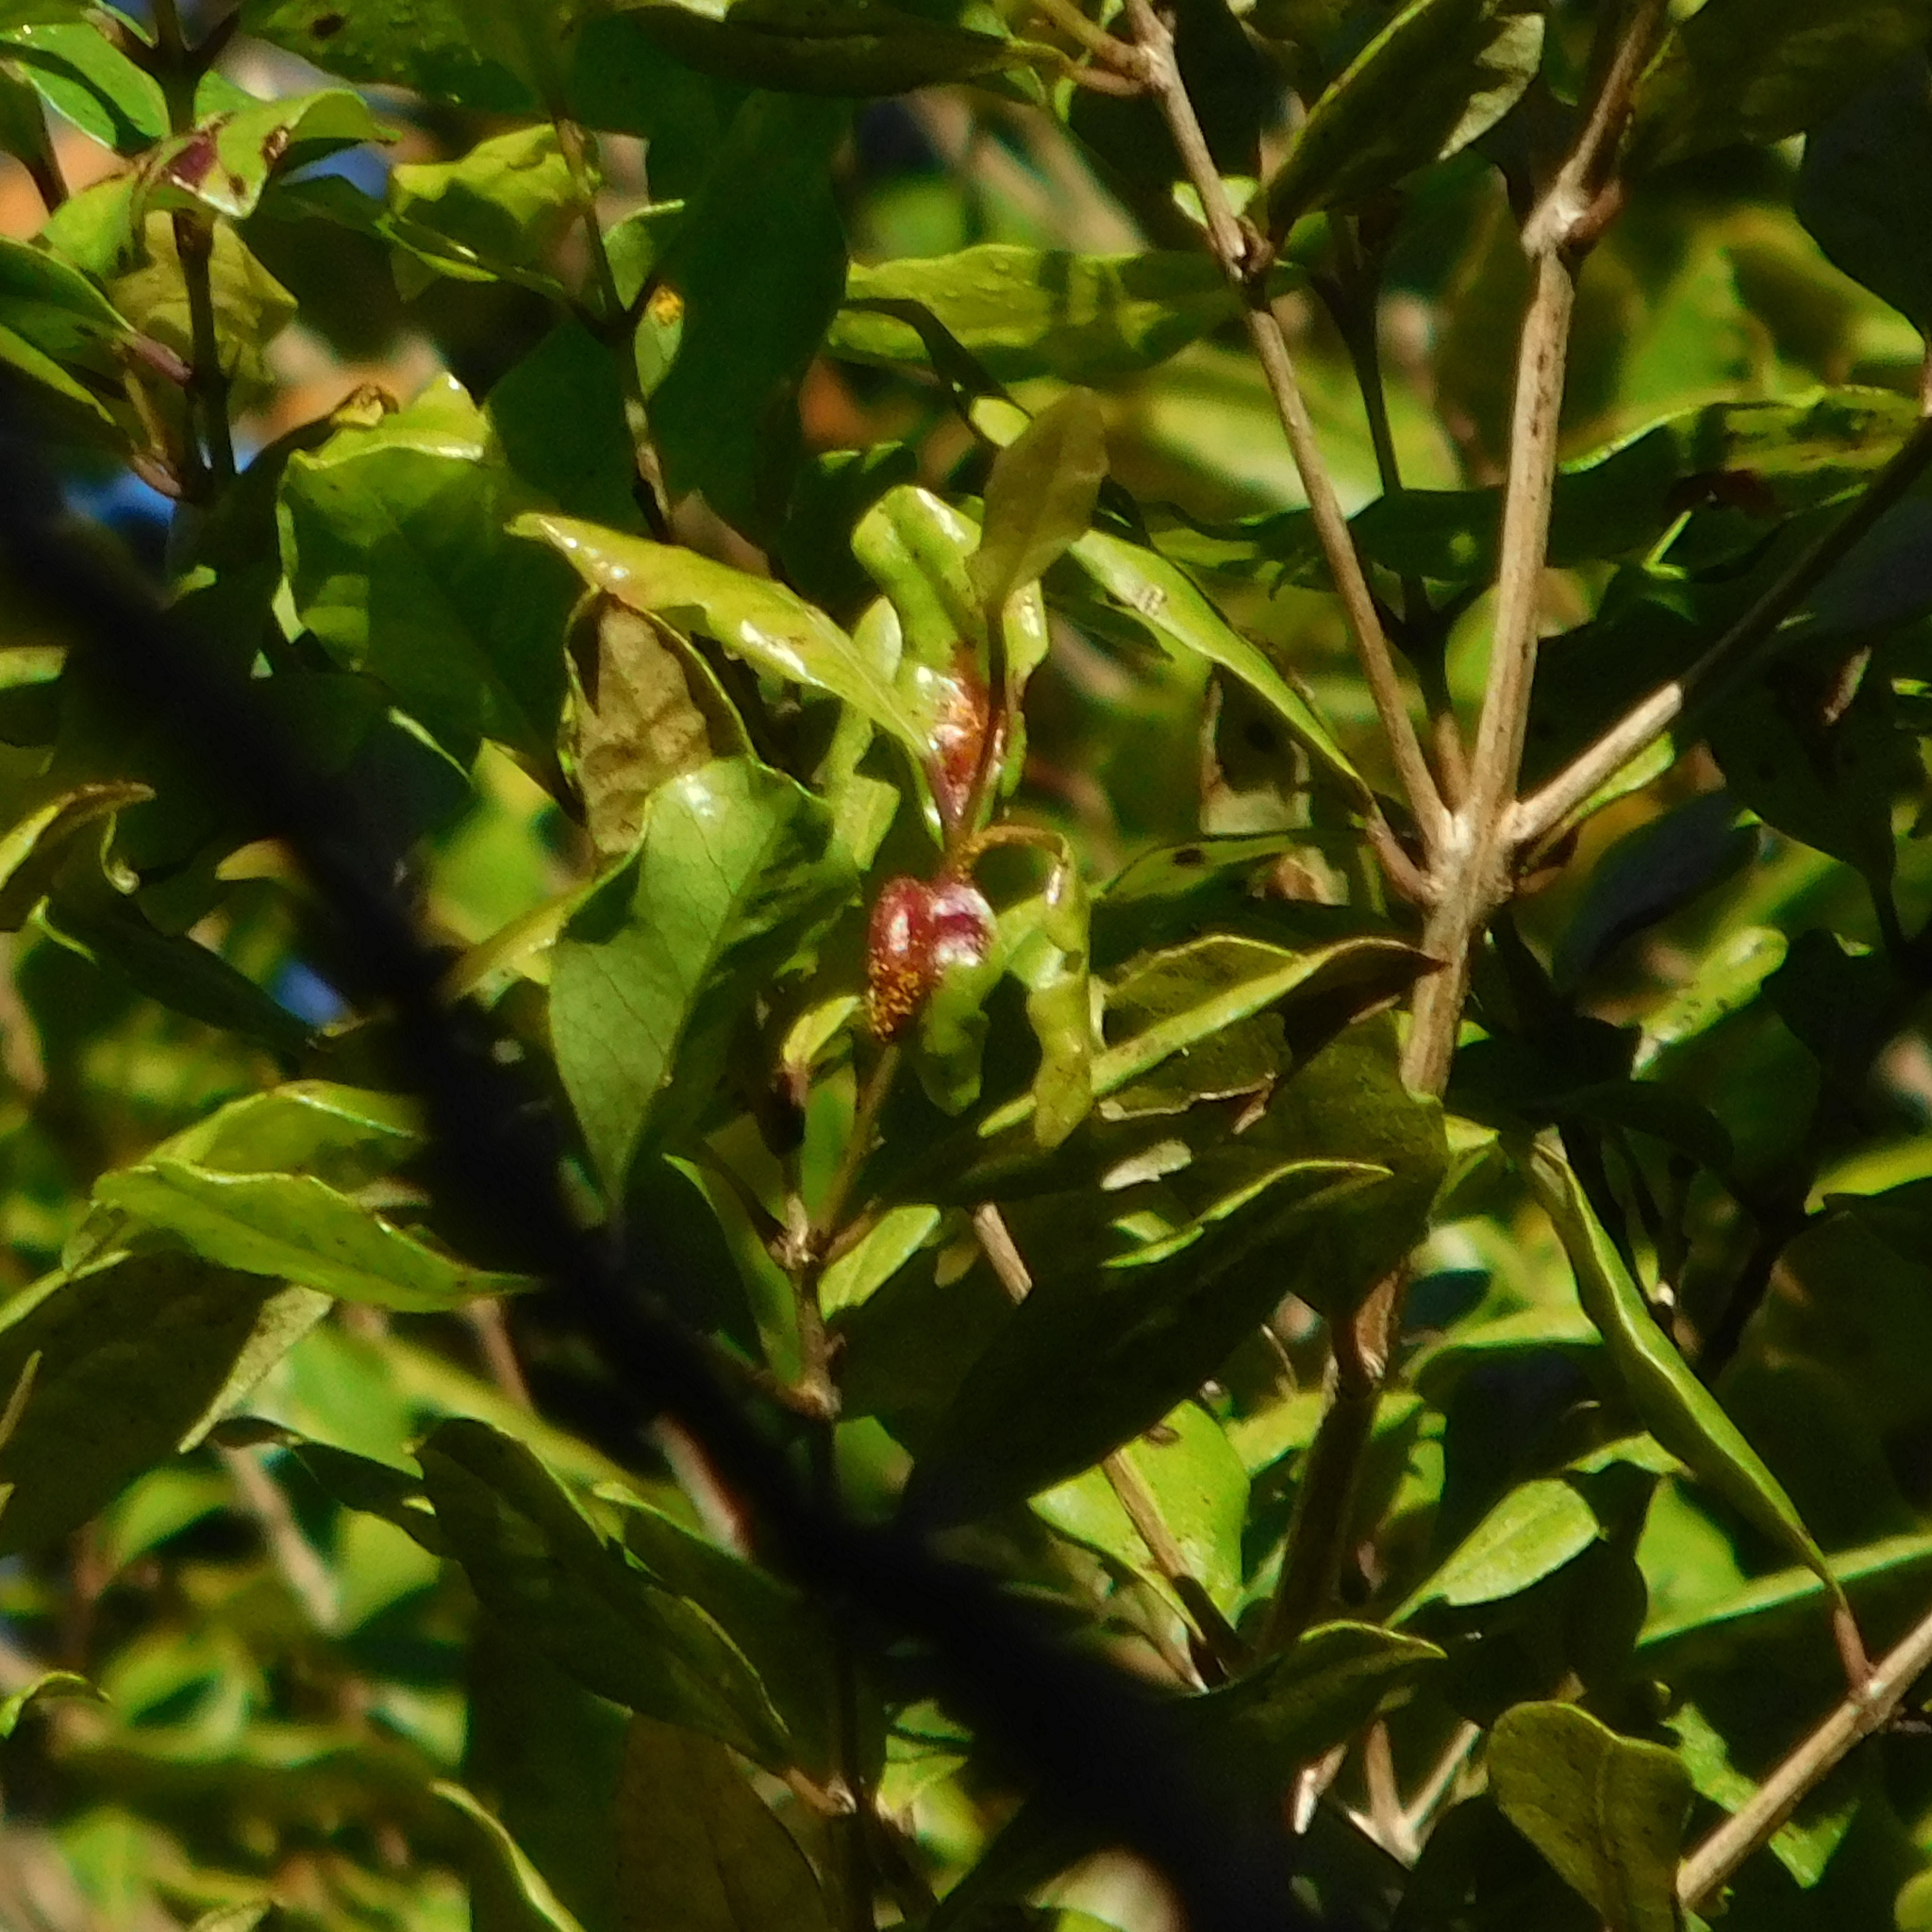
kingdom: Fungi
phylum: Basidiomycota
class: Pucciniomycetes
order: Pucciniales
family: Sphaerophragmiaceae
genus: Austropuccinia
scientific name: Austropuccinia psidii
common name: Myrtle rust
